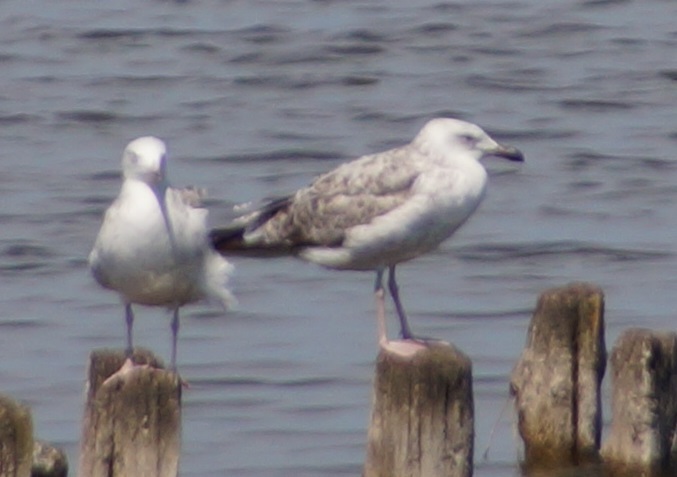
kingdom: Animalia
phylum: Chordata
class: Aves
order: Charadriiformes
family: Laridae
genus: Larus
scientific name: Larus cachinnans
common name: Caspian gull
